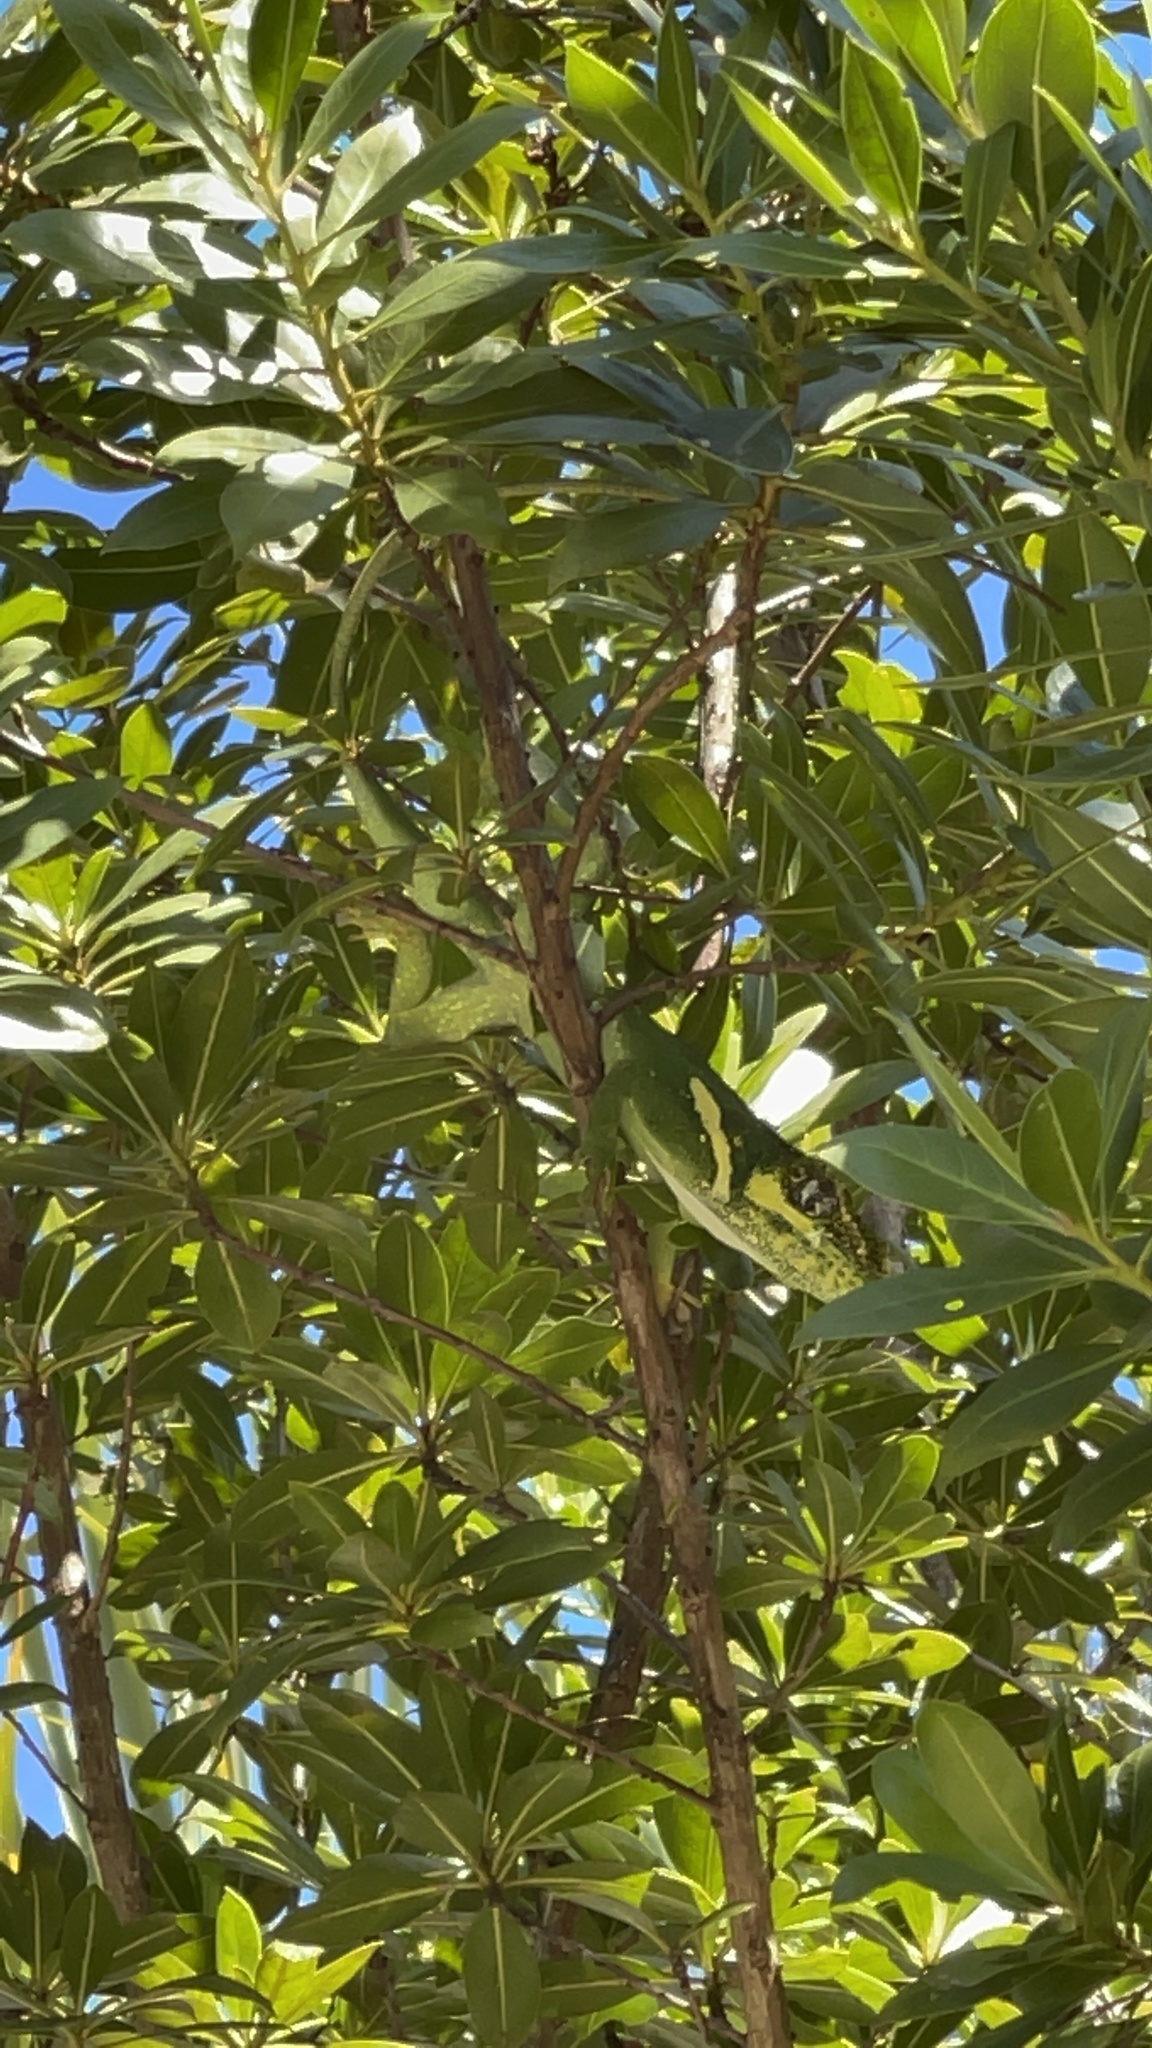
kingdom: Animalia
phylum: Chordata
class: Squamata
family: Dactyloidae
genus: Anolis
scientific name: Anolis equestris
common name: Knight anole
